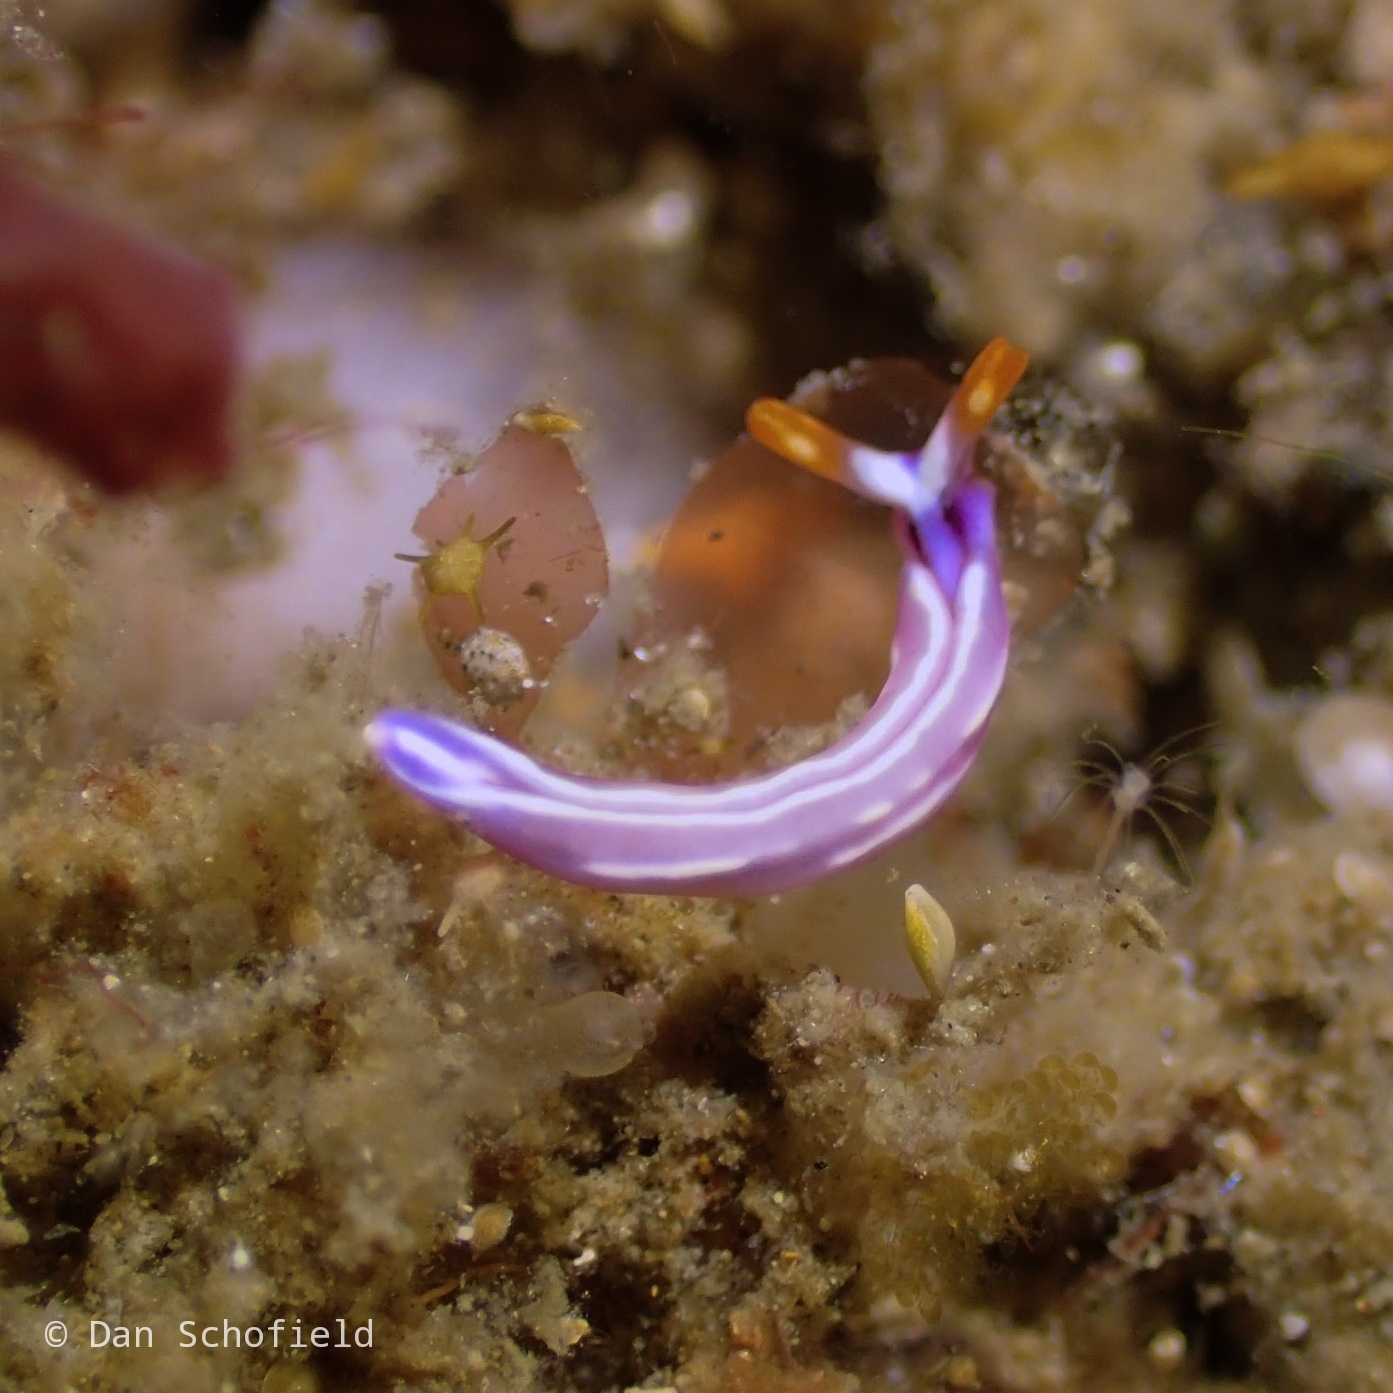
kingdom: Animalia
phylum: Mollusca
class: Gastropoda
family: Plakobranchidae
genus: Thuridilla
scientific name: Thuridilla albopustulosa
